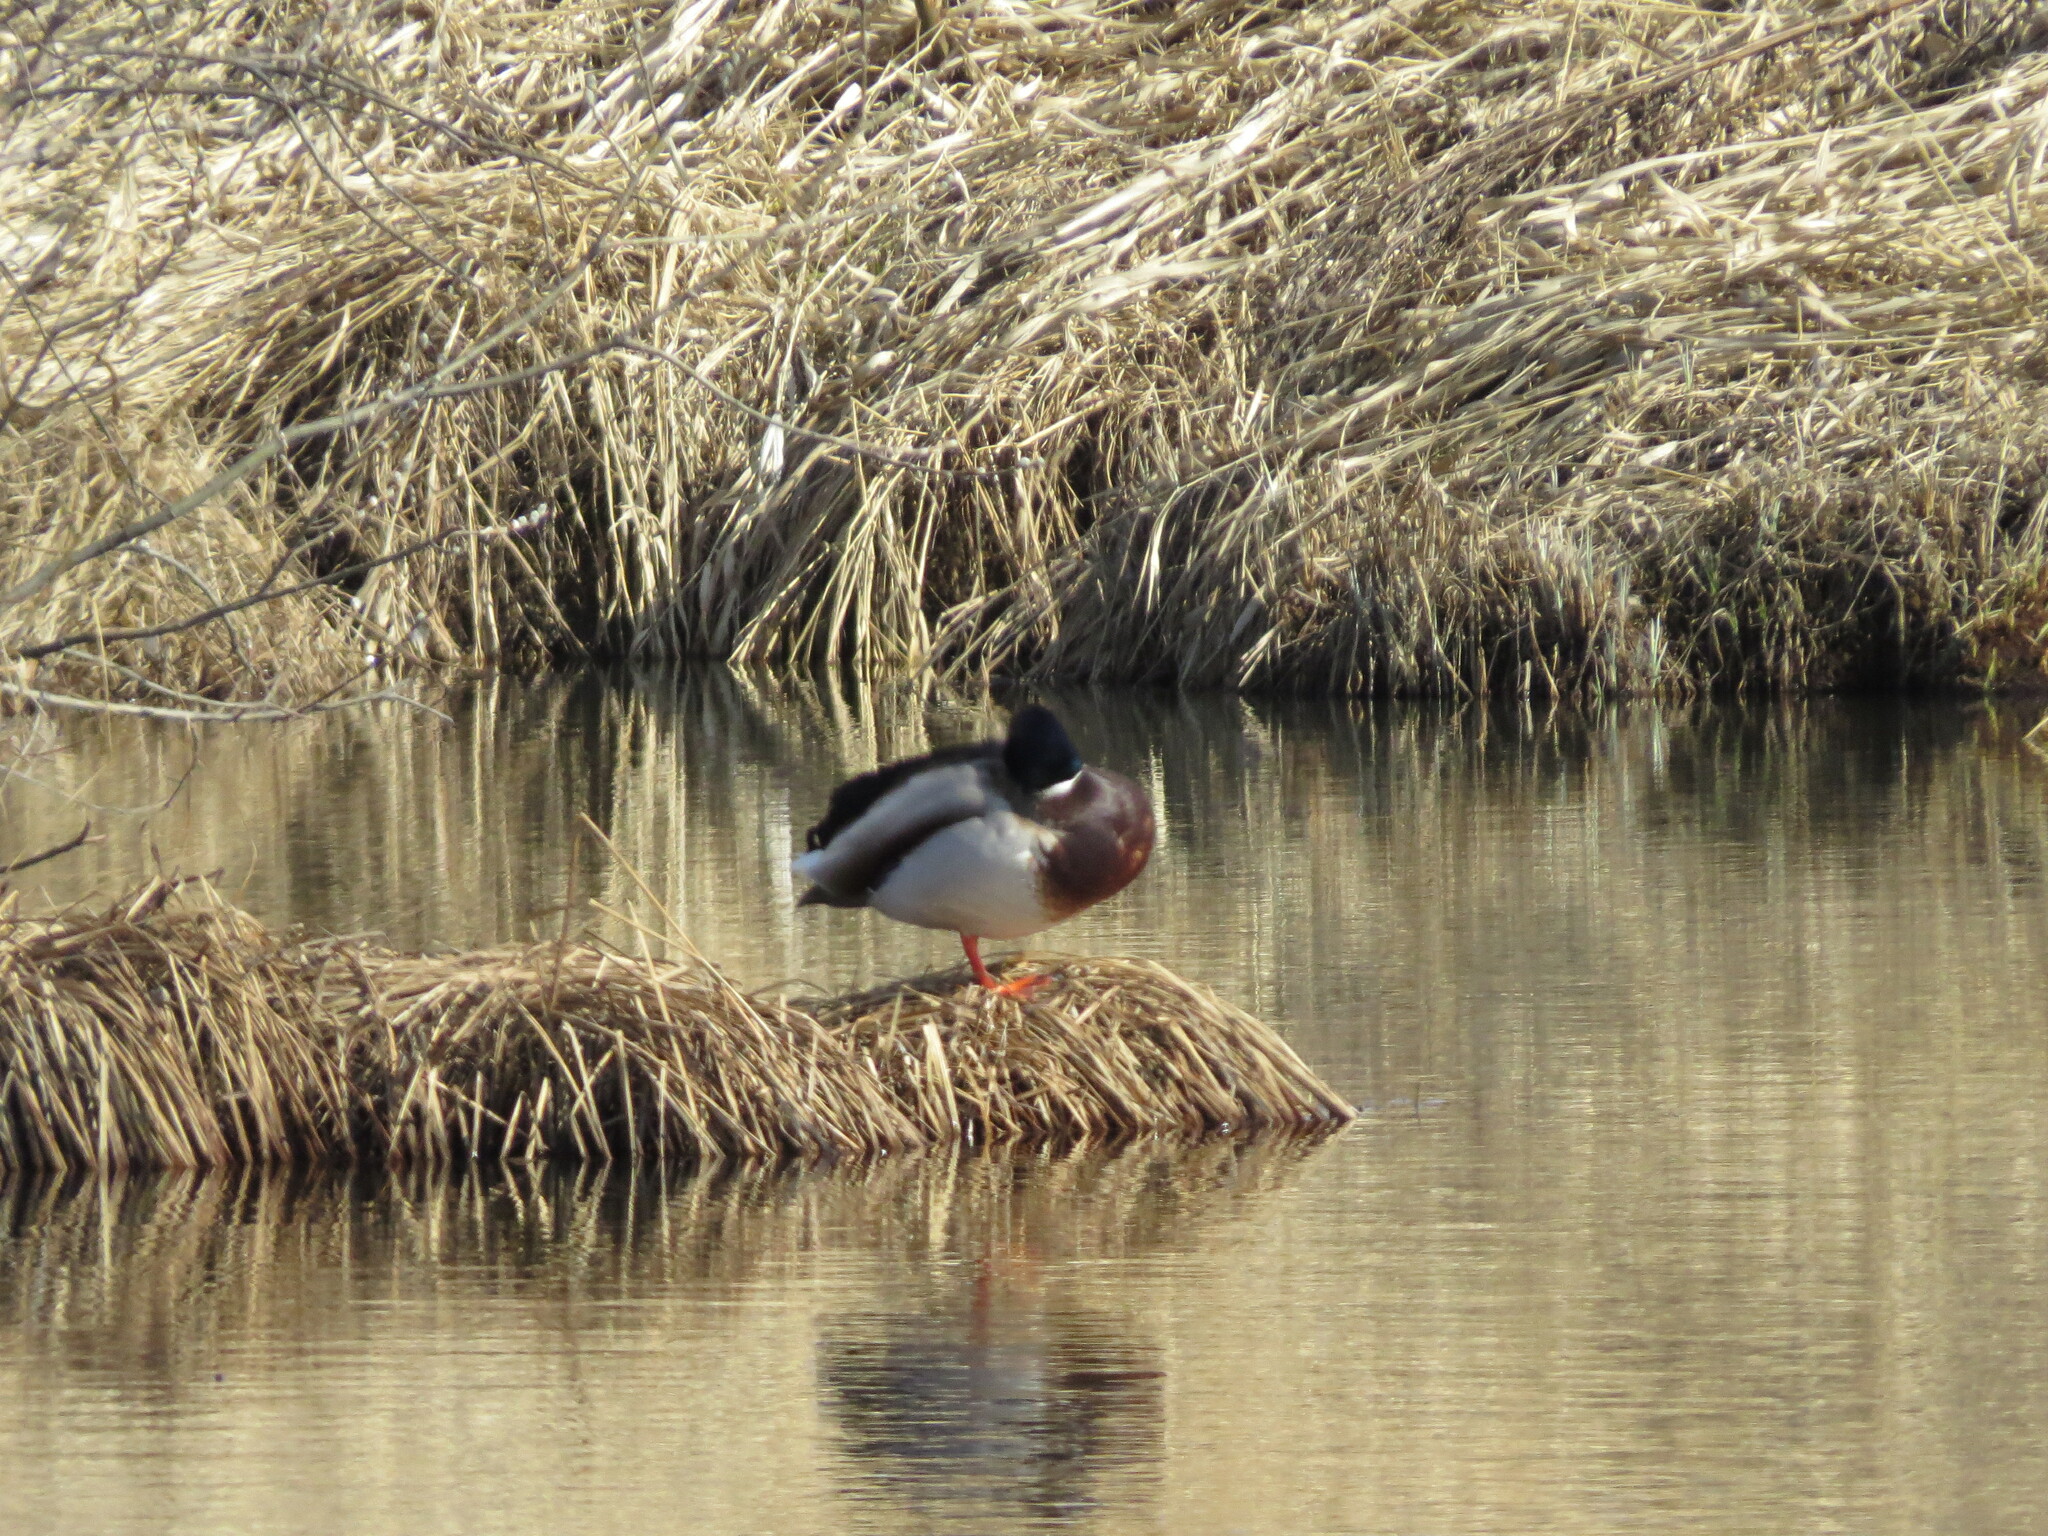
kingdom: Animalia
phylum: Chordata
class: Aves
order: Anseriformes
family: Anatidae
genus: Anas
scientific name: Anas platyrhynchos
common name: Mallard
